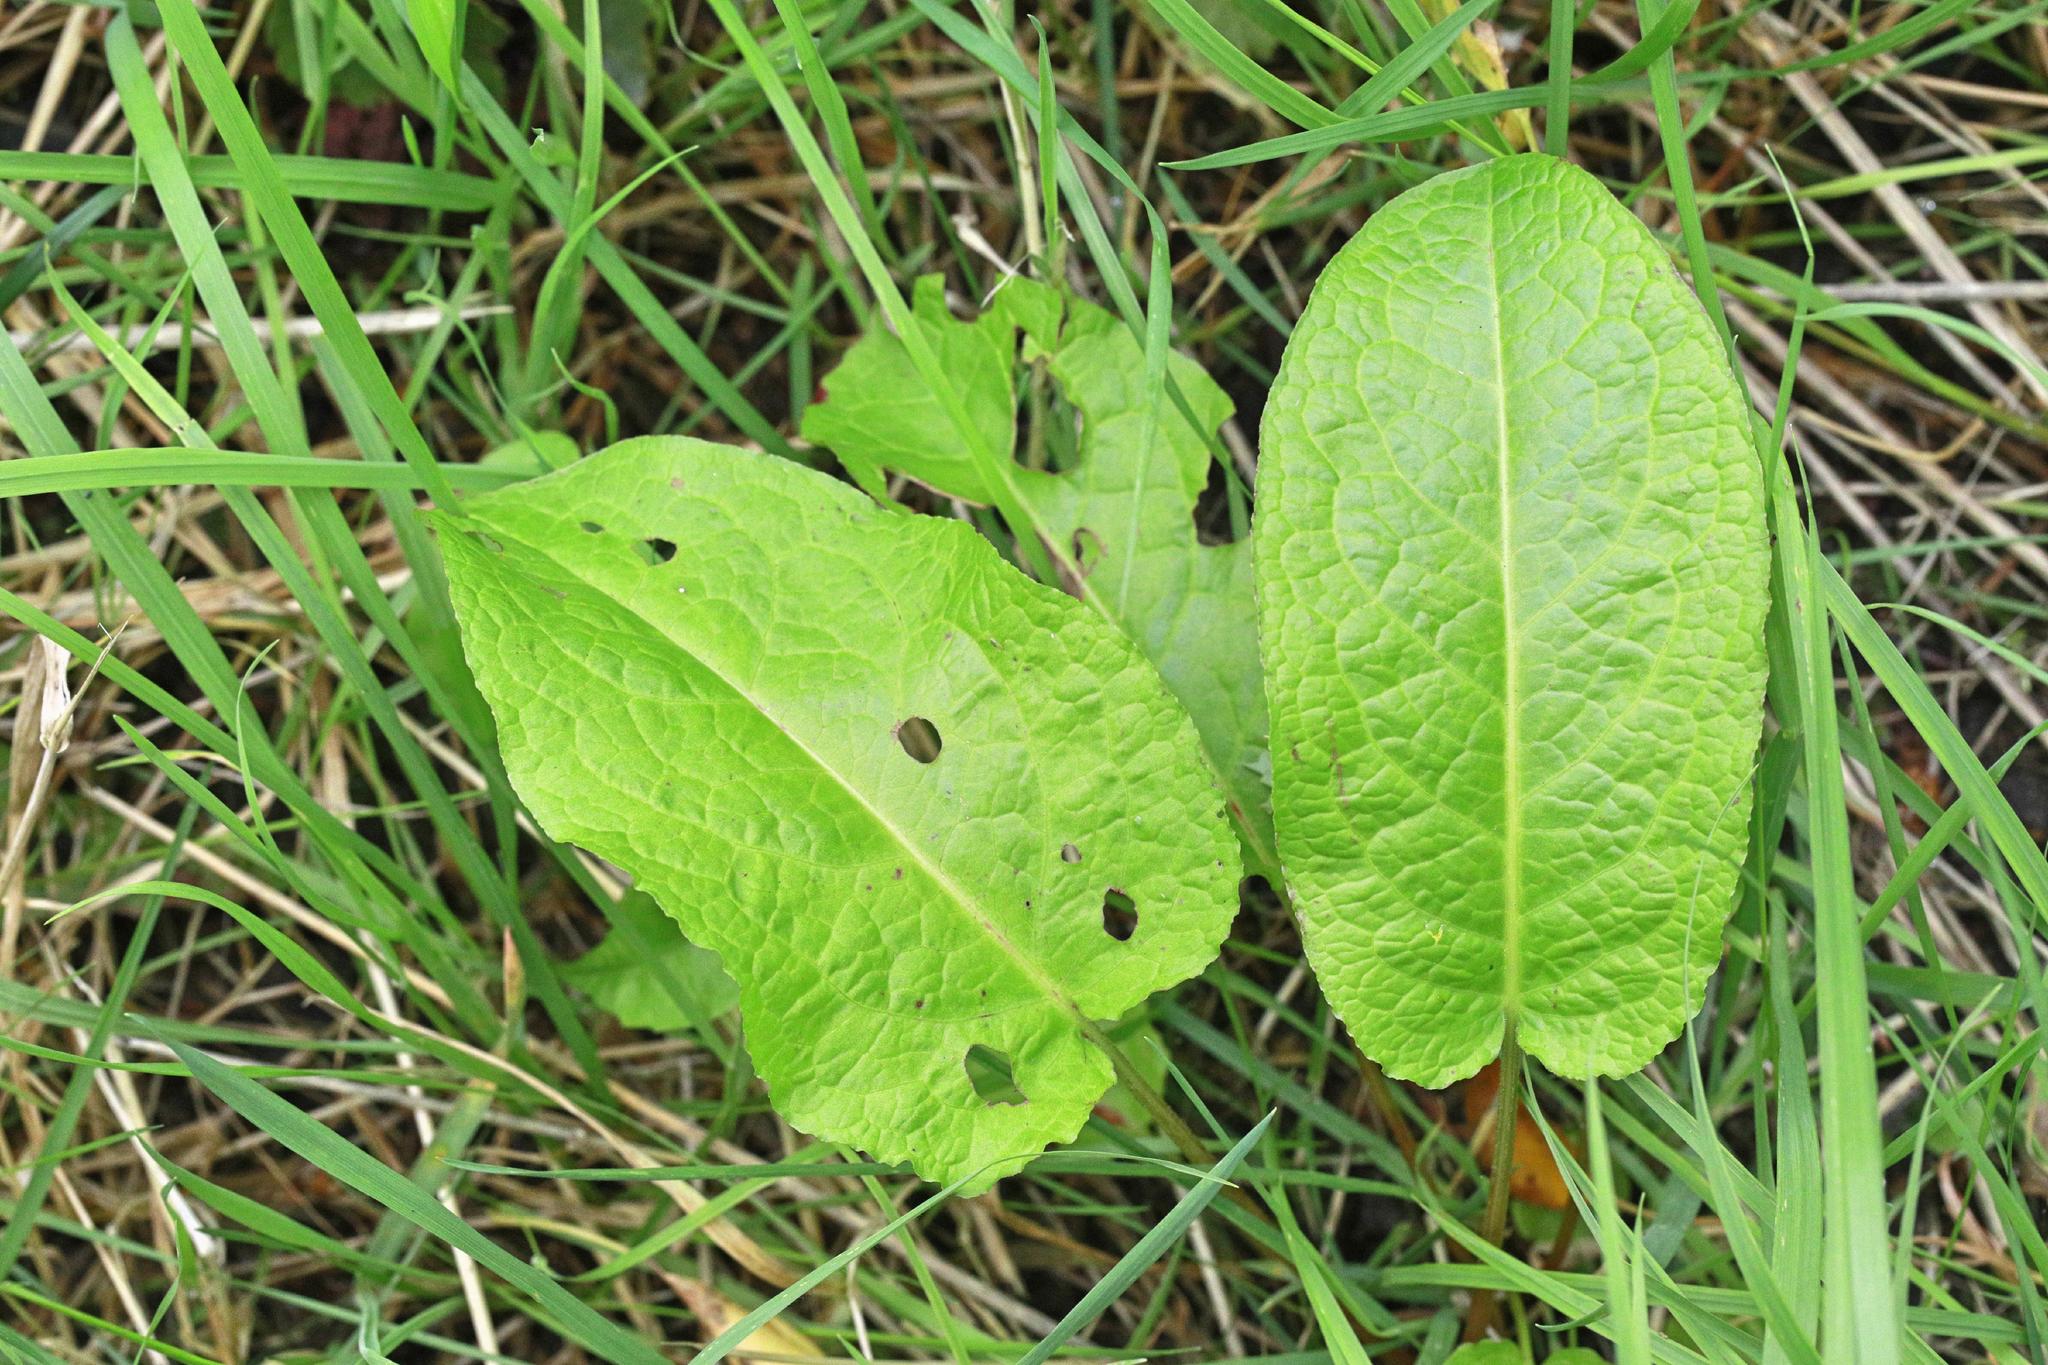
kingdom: Plantae
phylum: Tracheophyta
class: Magnoliopsida
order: Caryophyllales
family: Polygonaceae
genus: Rumex
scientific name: Rumex obtusifolius
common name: Bitter dock
